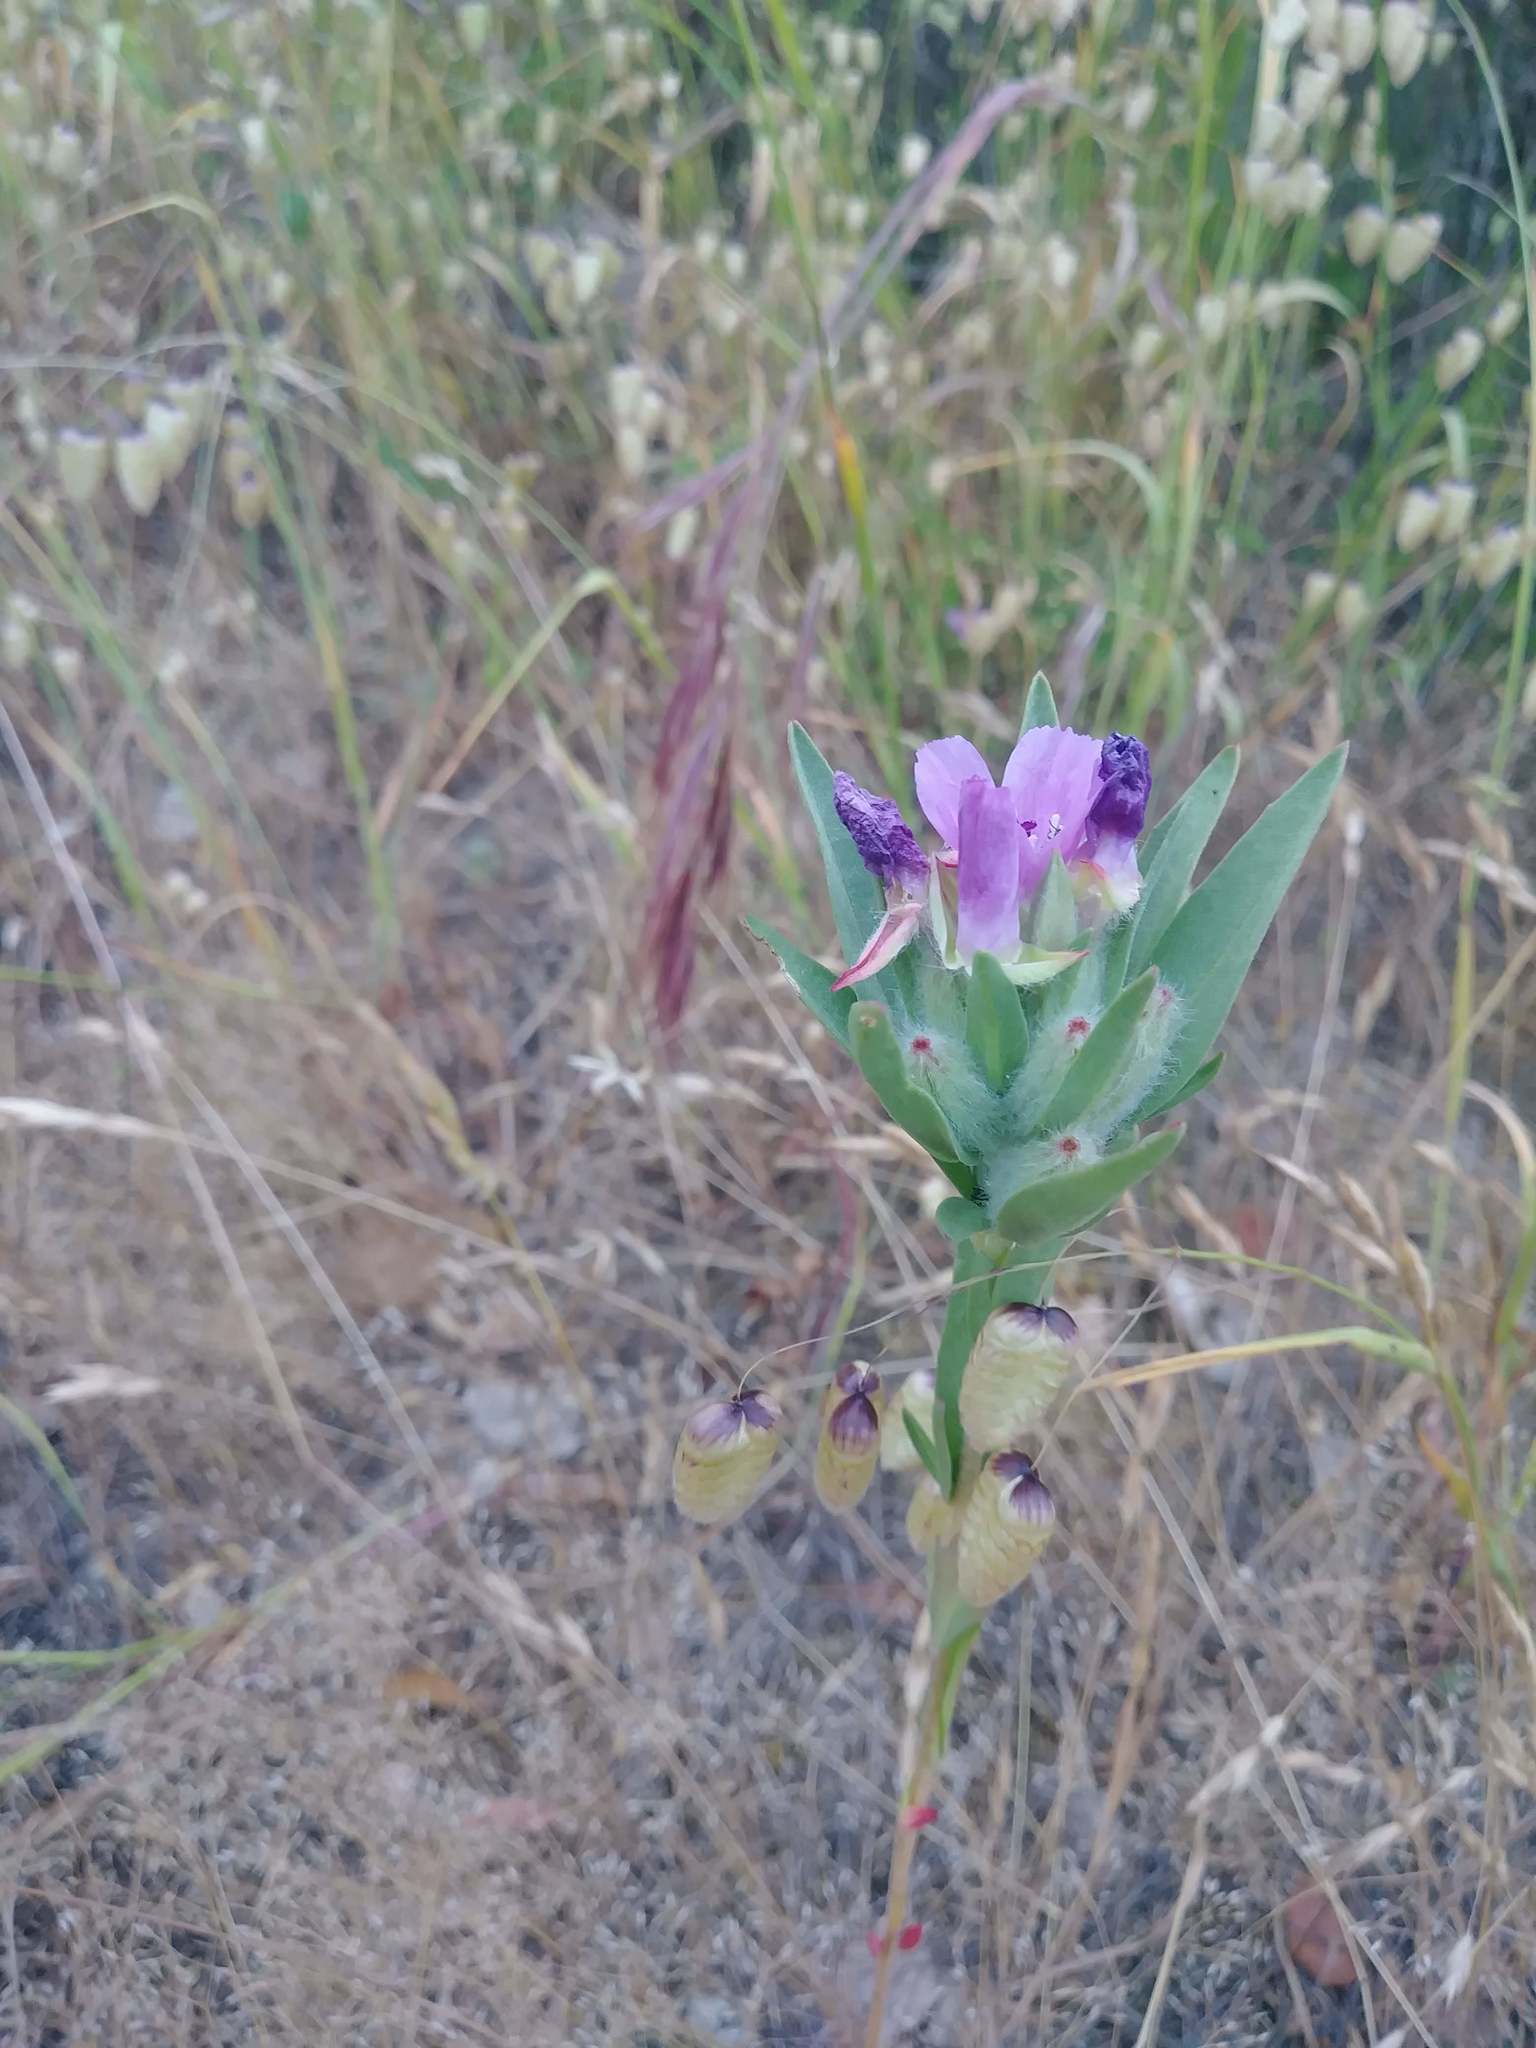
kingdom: Plantae
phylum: Tracheophyta
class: Magnoliopsida
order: Myrtales
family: Onagraceae
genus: Clarkia
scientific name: Clarkia purpurea
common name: Purple clarkia
